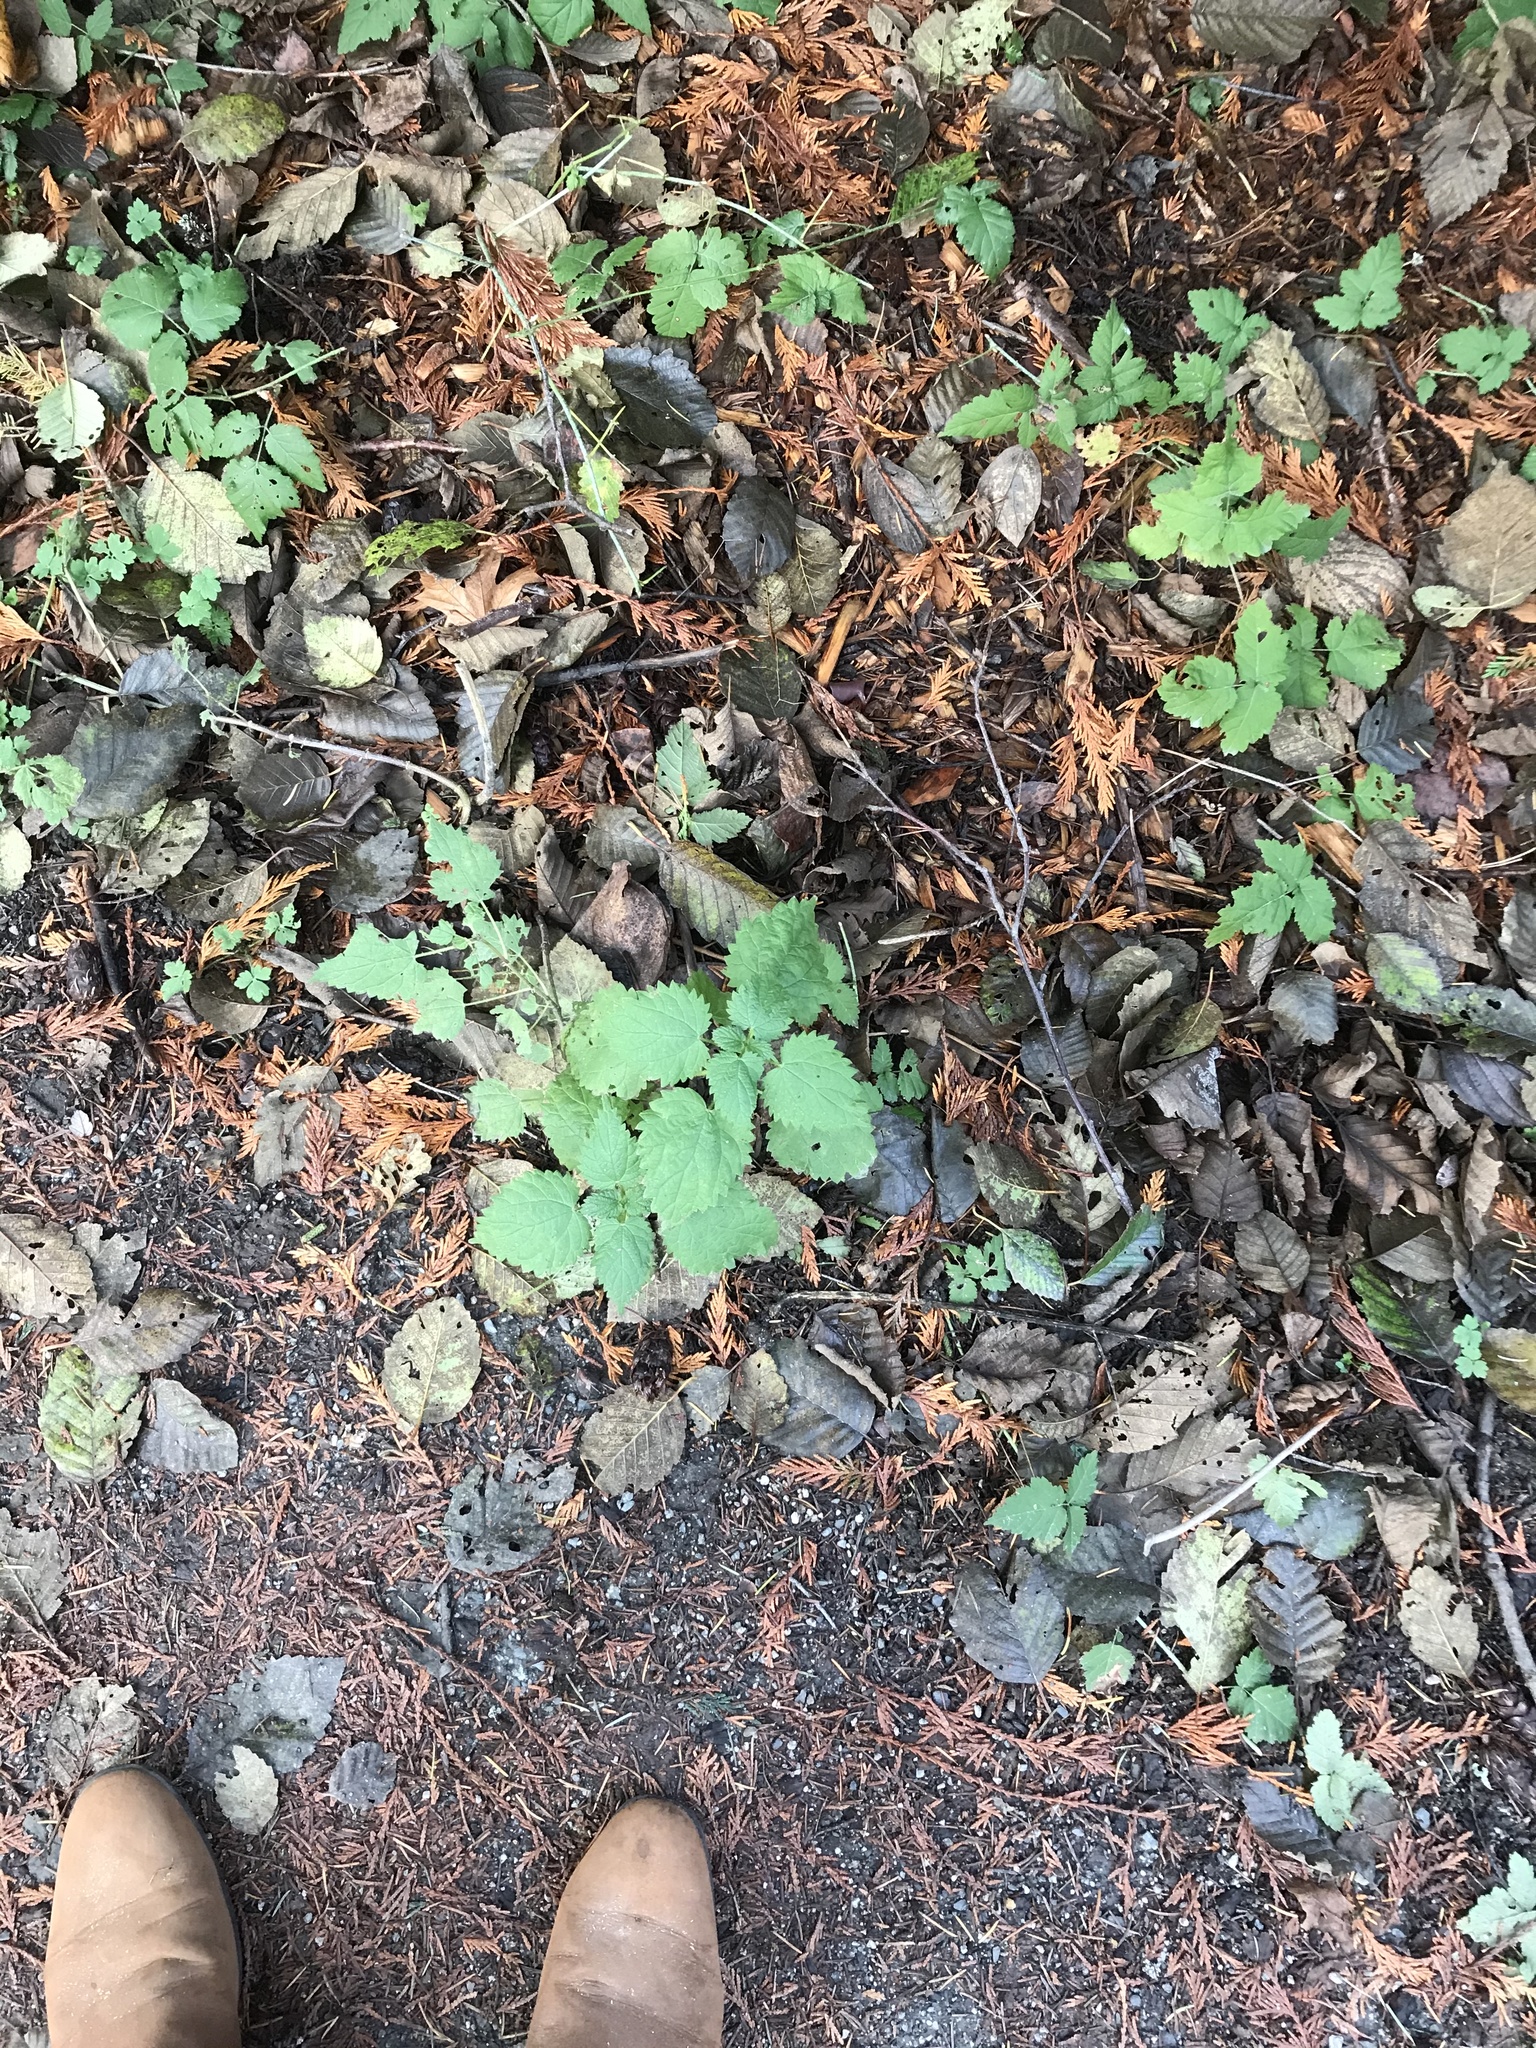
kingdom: Plantae
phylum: Tracheophyta
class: Magnoliopsida
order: Rosales
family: Urticaceae
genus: Urtica
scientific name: Urtica dioica
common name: Common nettle
